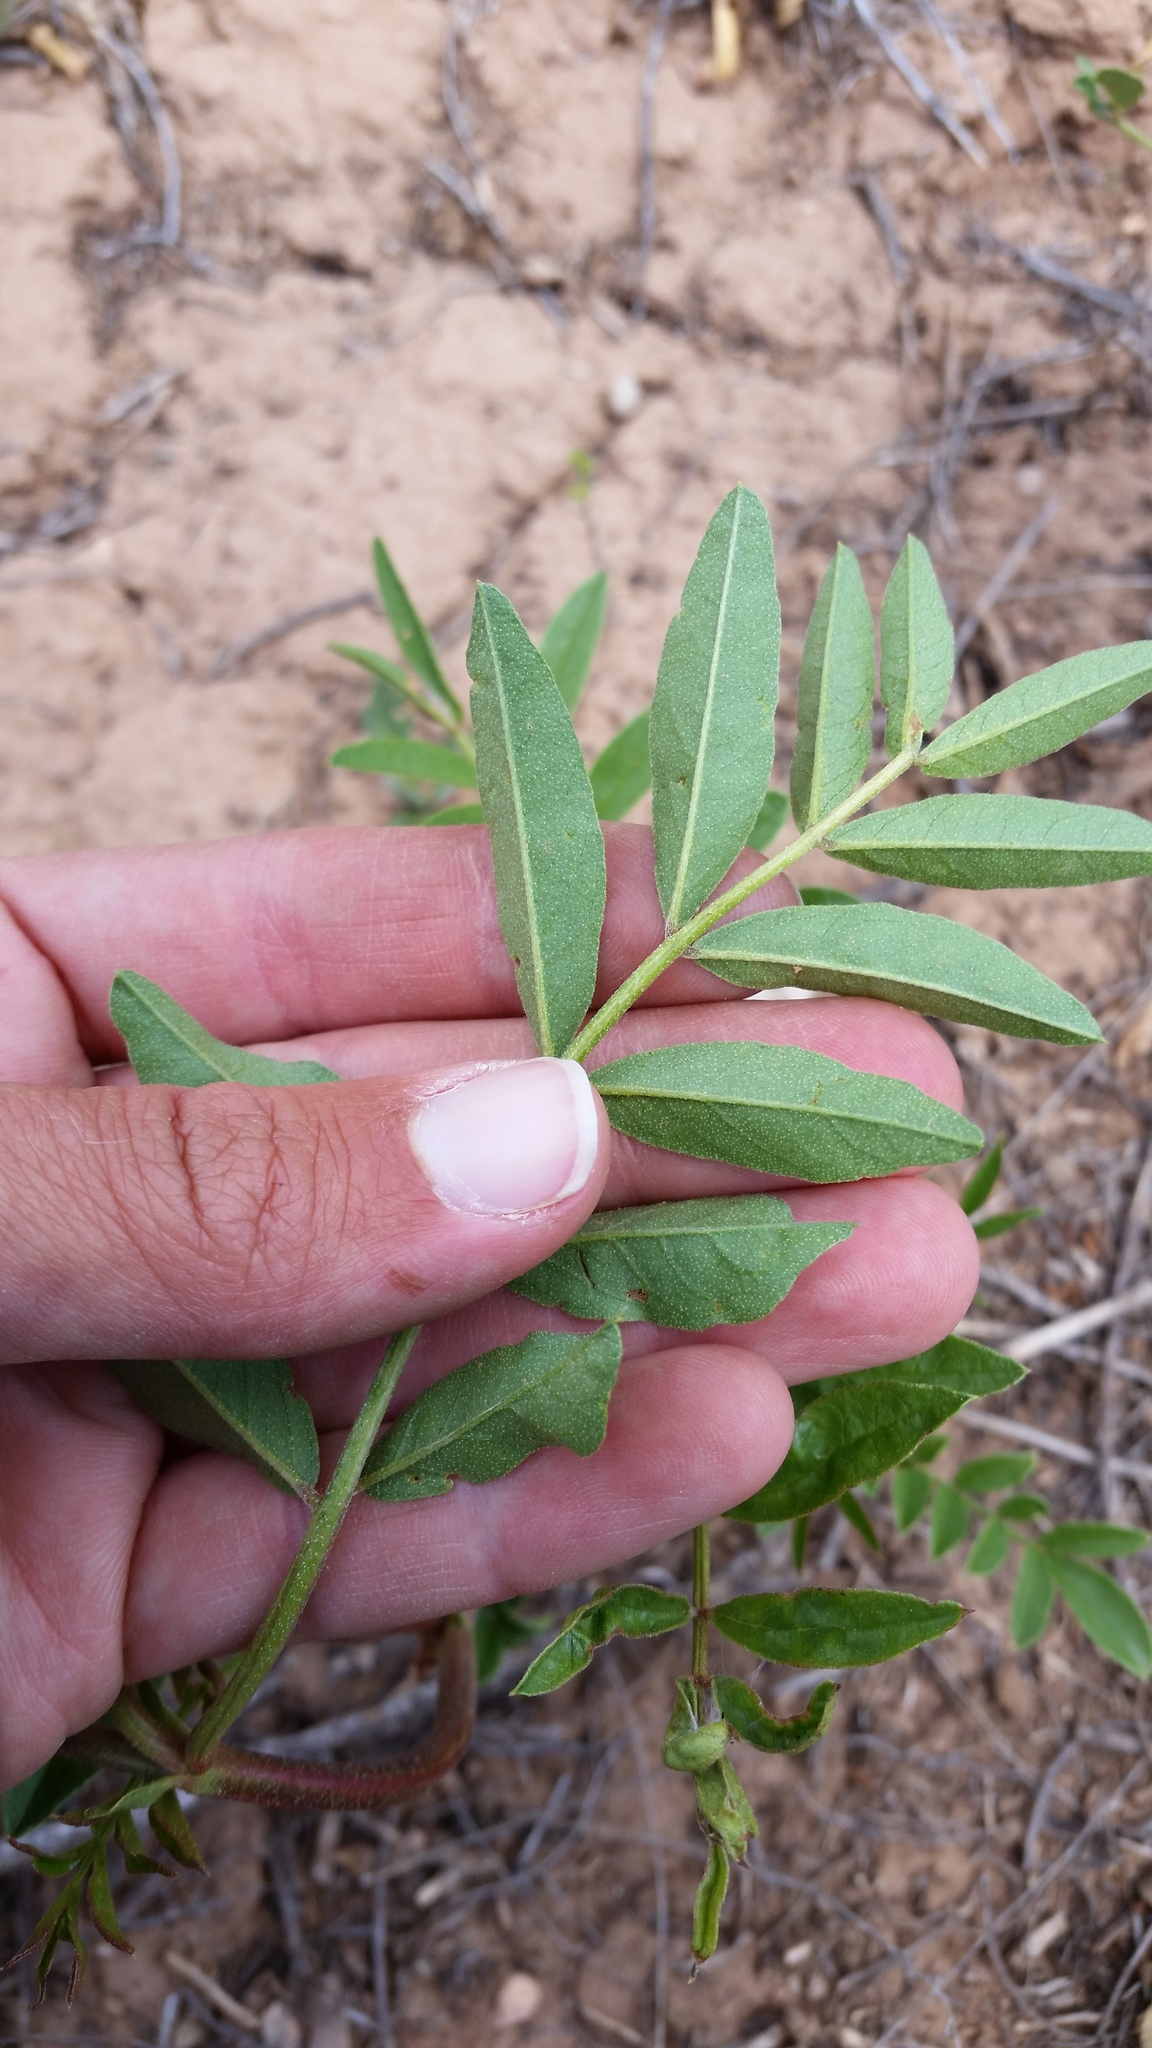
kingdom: Plantae
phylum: Tracheophyta
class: Magnoliopsida
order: Fabales
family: Fabaceae
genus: Glycyrrhiza
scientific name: Glycyrrhiza lepidota
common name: American liquorice
